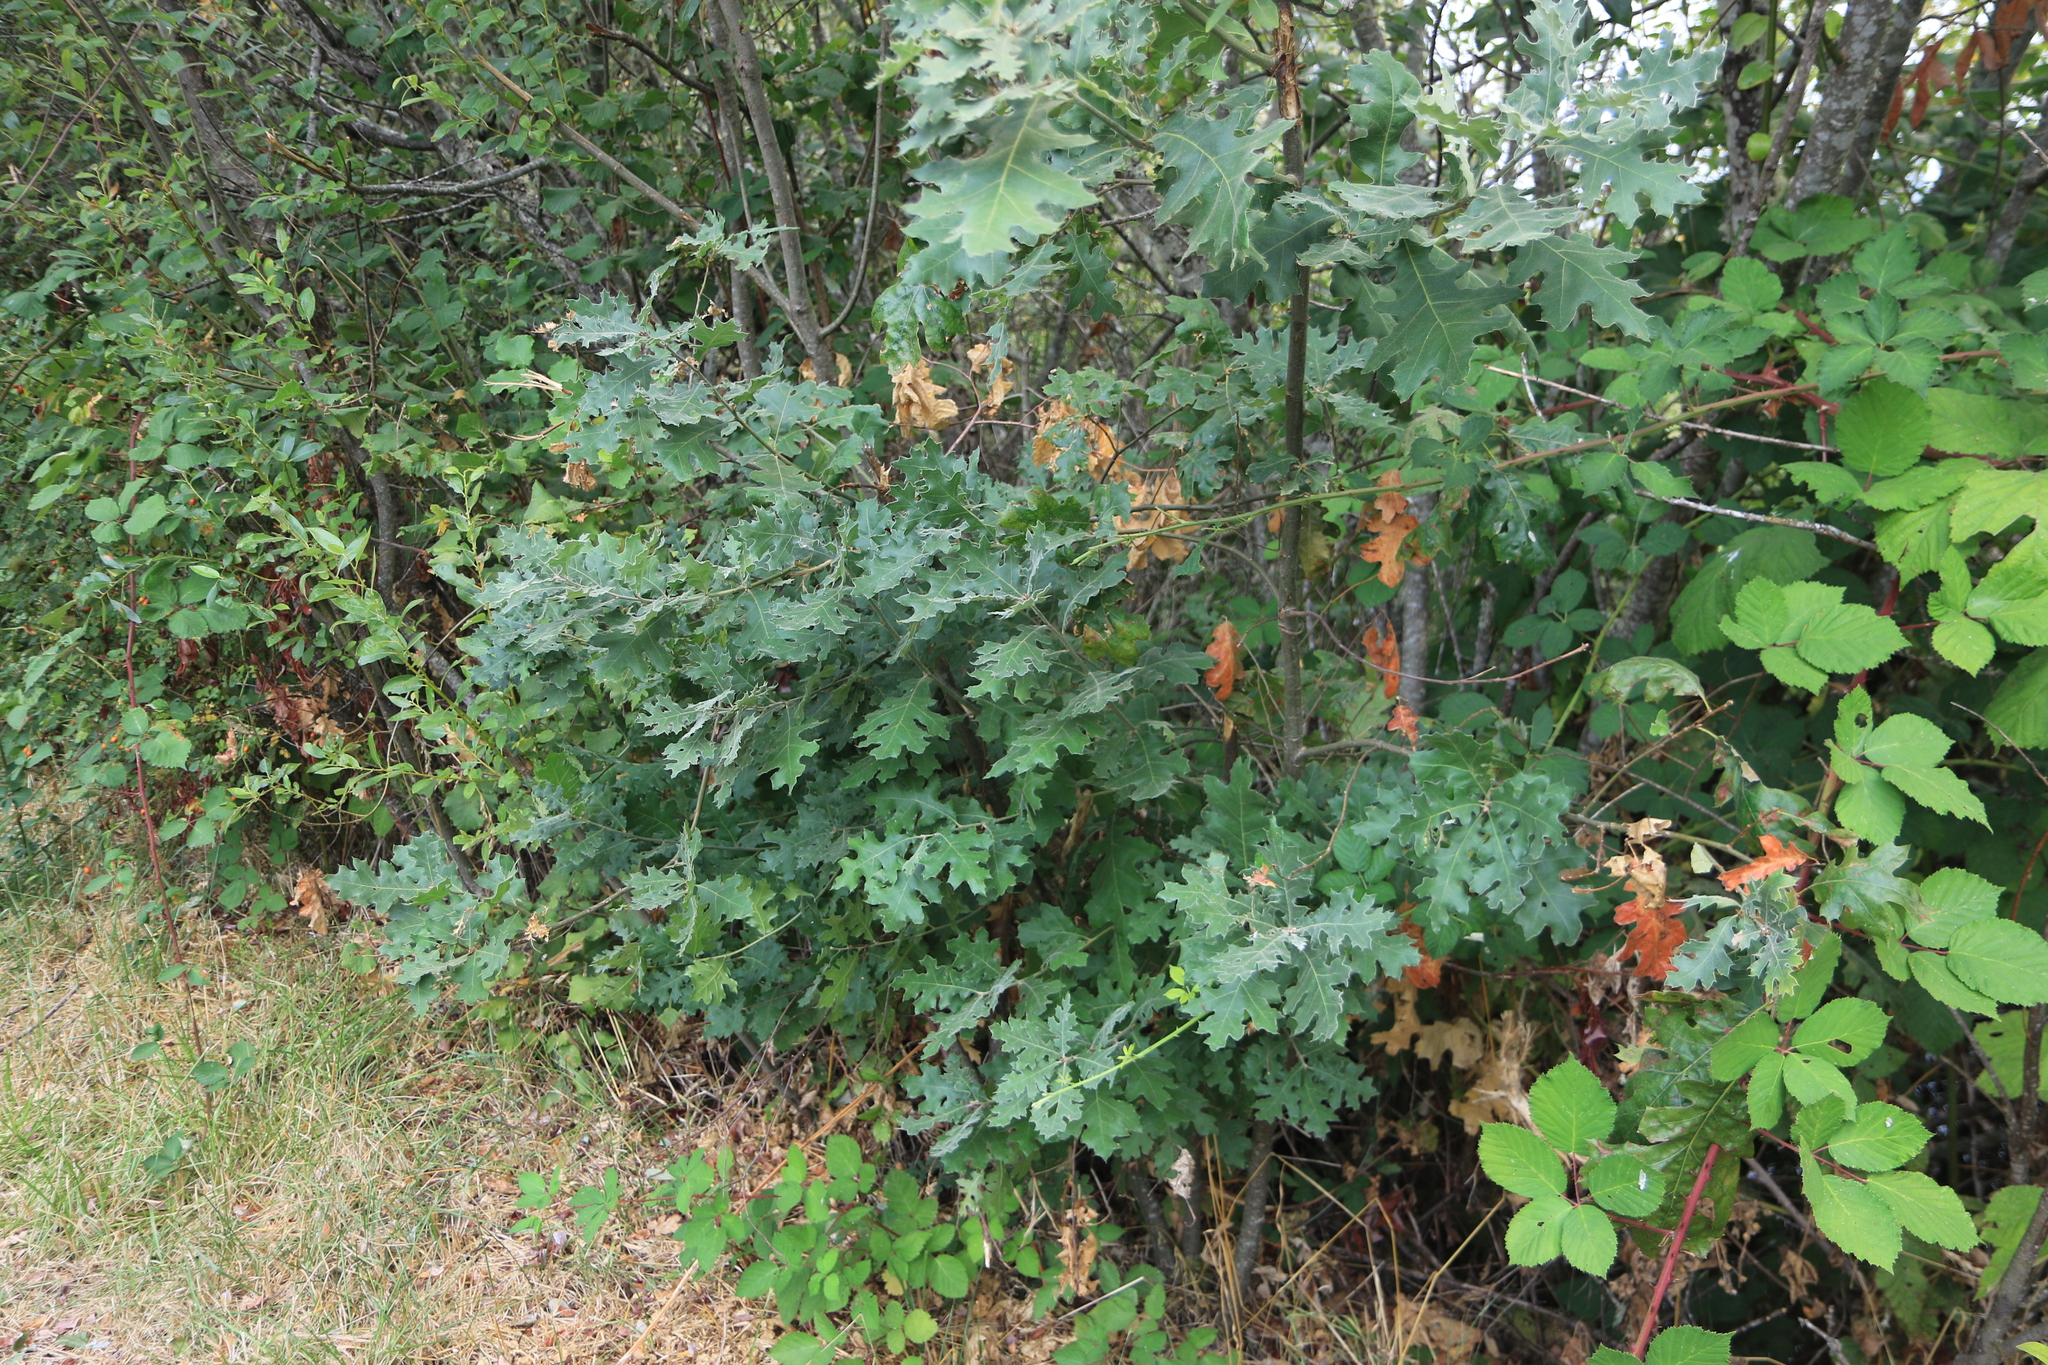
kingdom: Plantae
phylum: Tracheophyta
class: Magnoliopsida
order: Fagales
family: Fagaceae
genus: Quercus
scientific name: Quercus kelloggii
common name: California black oak
